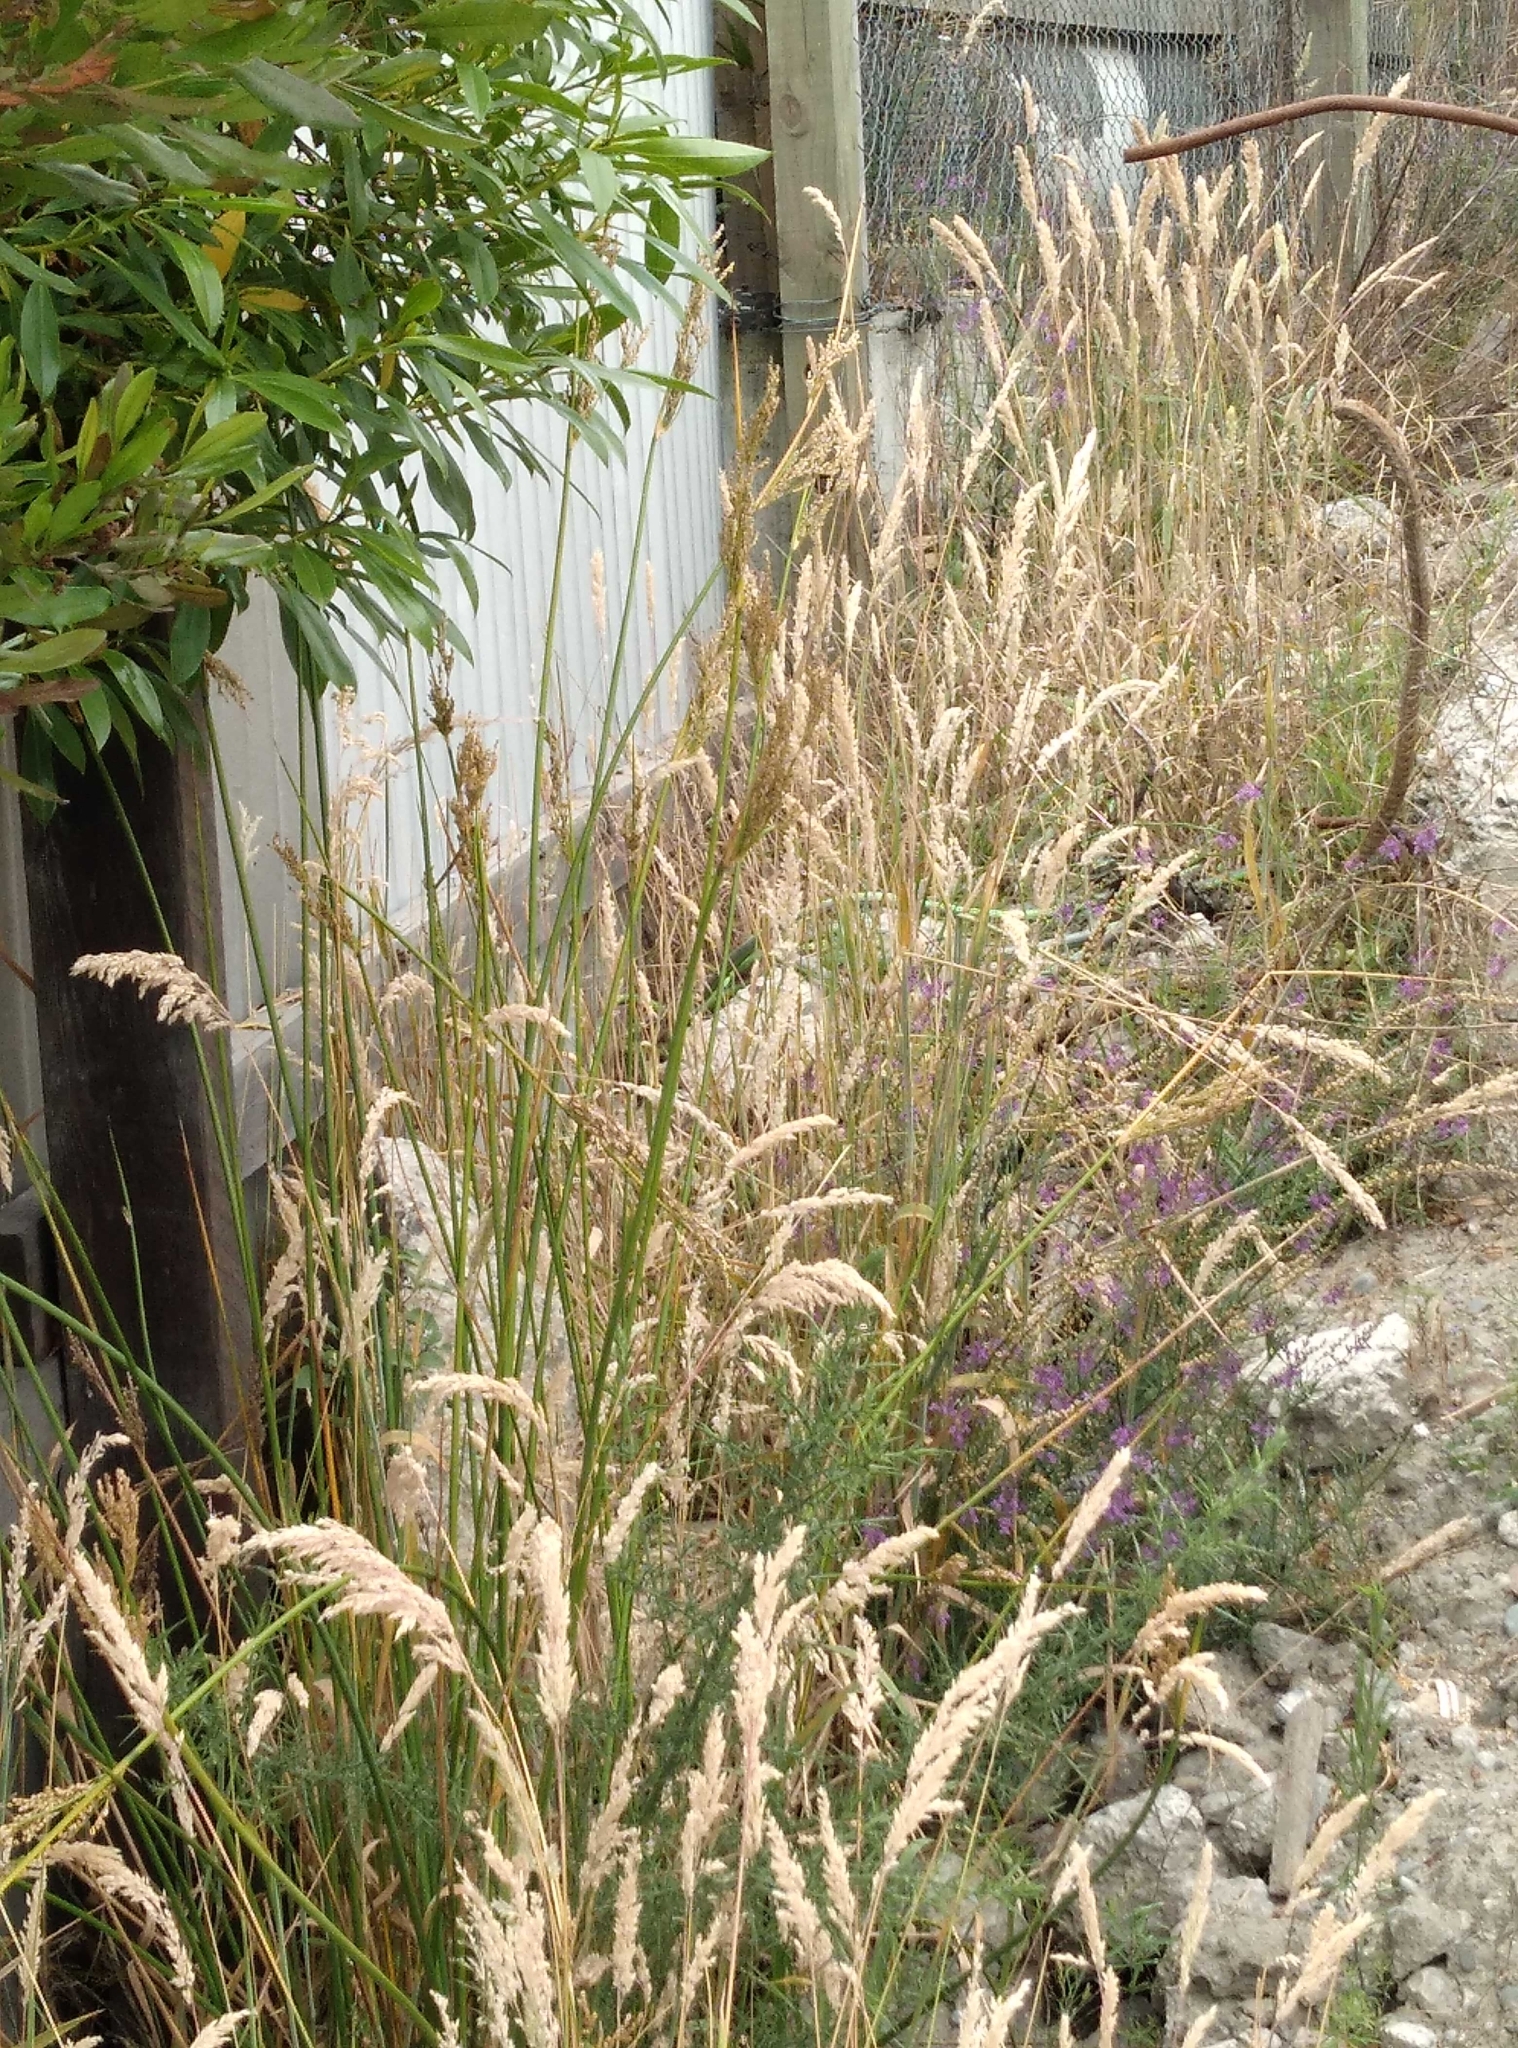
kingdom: Plantae
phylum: Tracheophyta
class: Liliopsida
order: Poales
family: Juncaceae
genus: Juncus
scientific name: Juncus pallidus
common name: Great soft-rush
